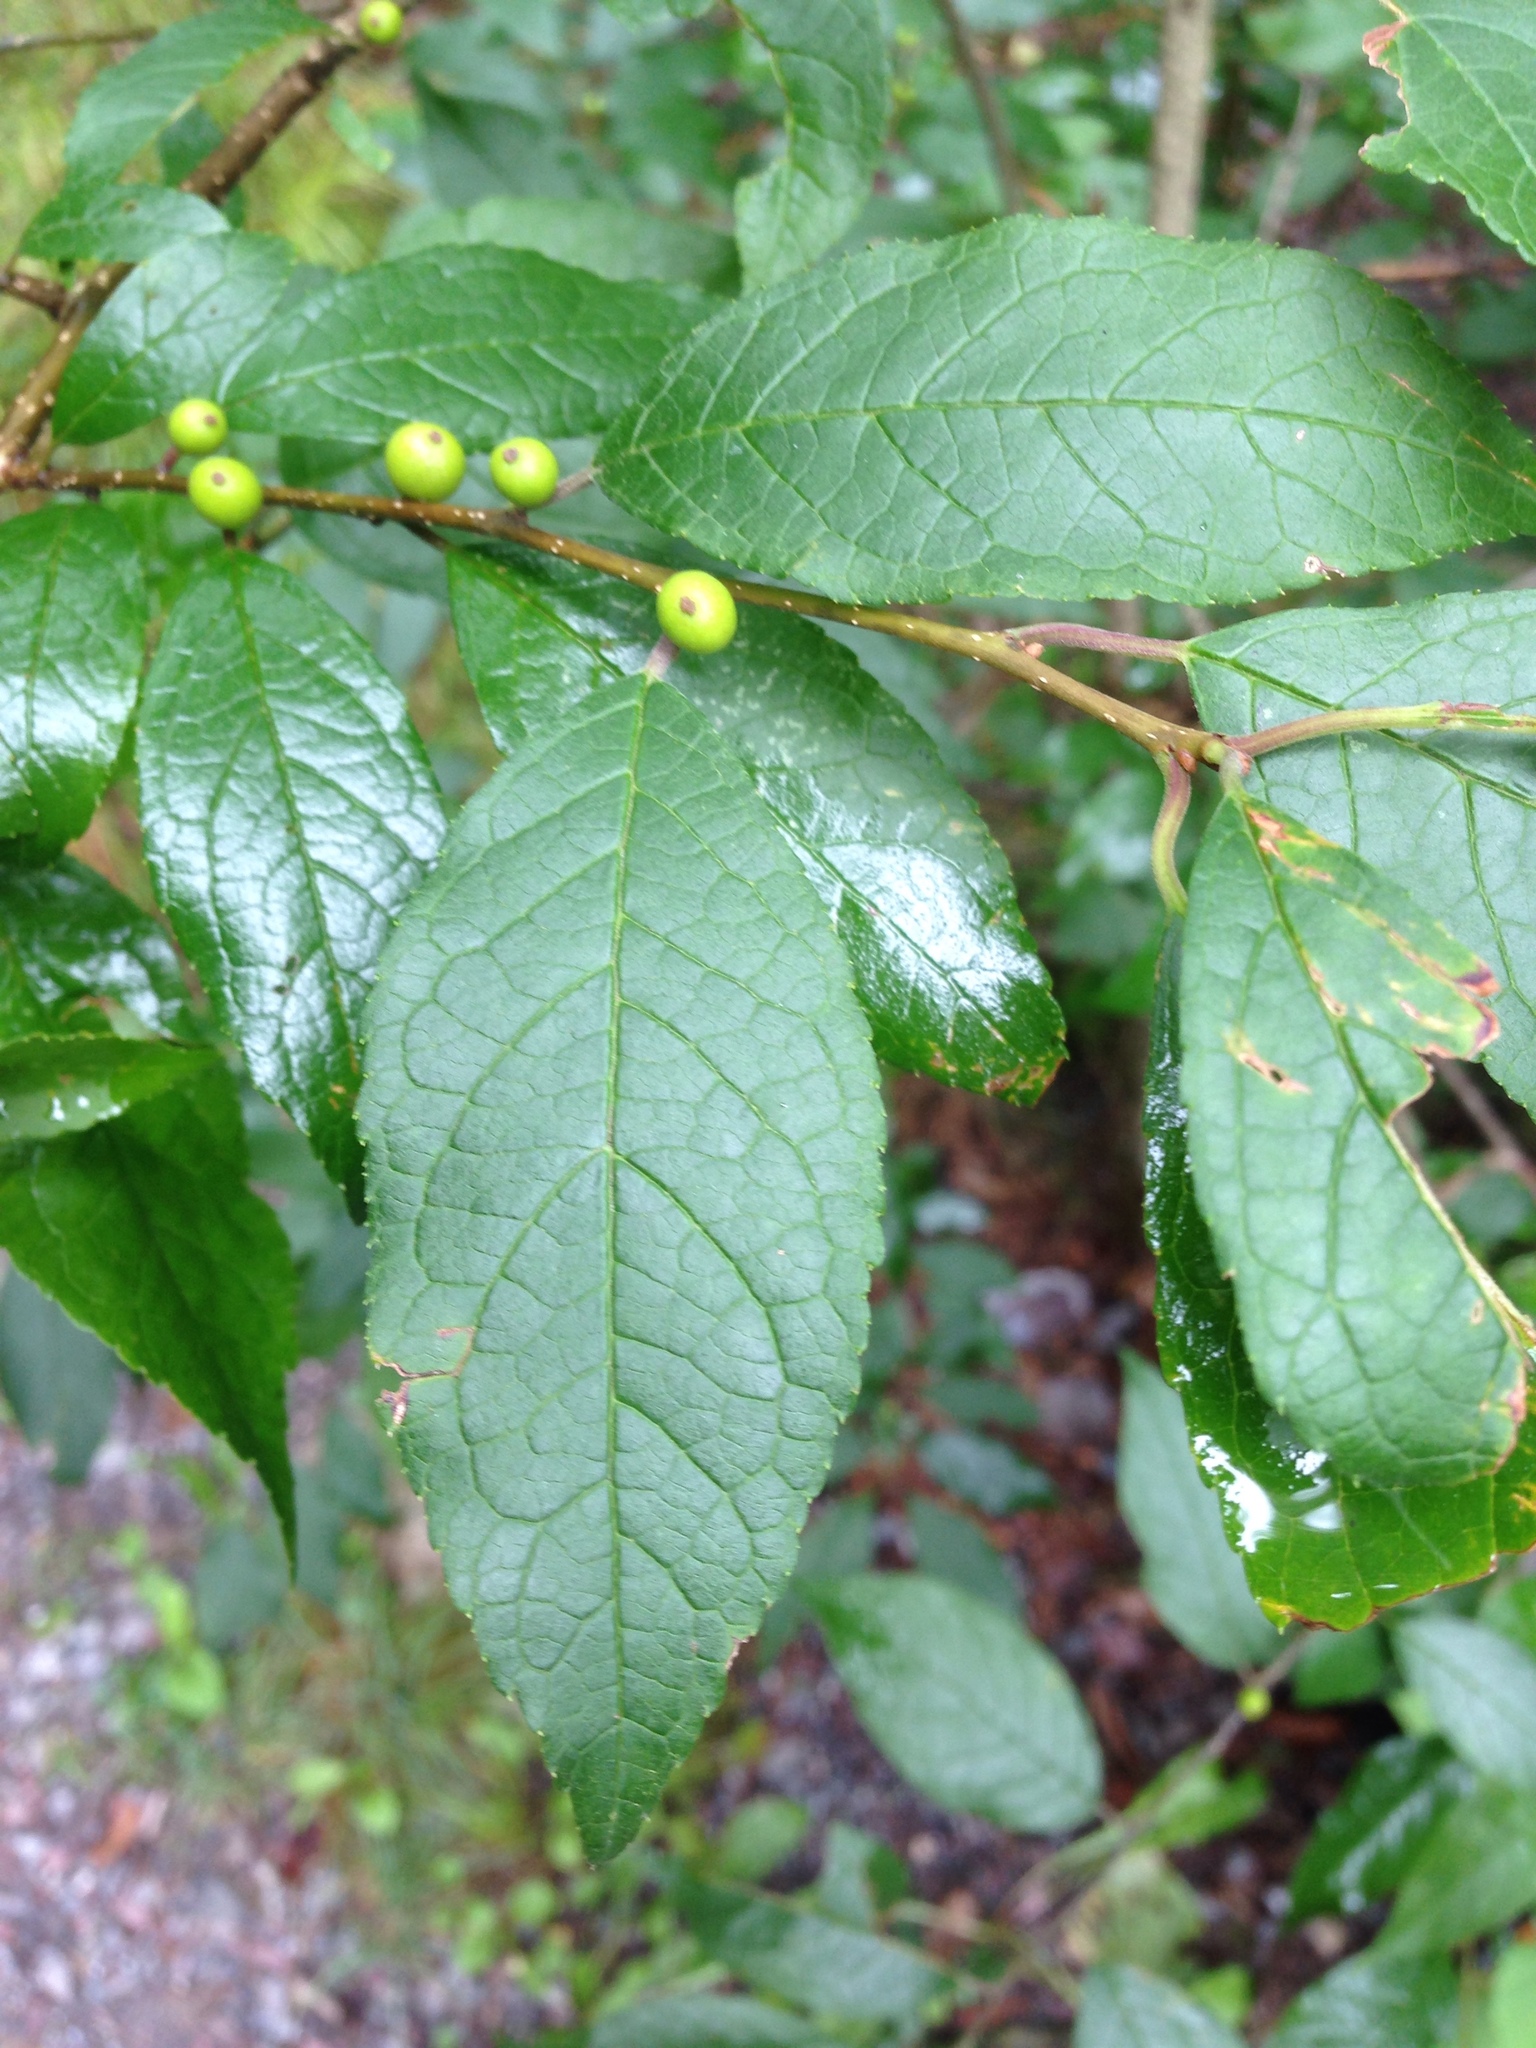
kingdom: Plantae
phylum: Tracheophyta
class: Magnoliopsida
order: Aquifoliales
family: Aquifoliaceae
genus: Ilex
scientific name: Ilex verticillata
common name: Virginia winterberry
